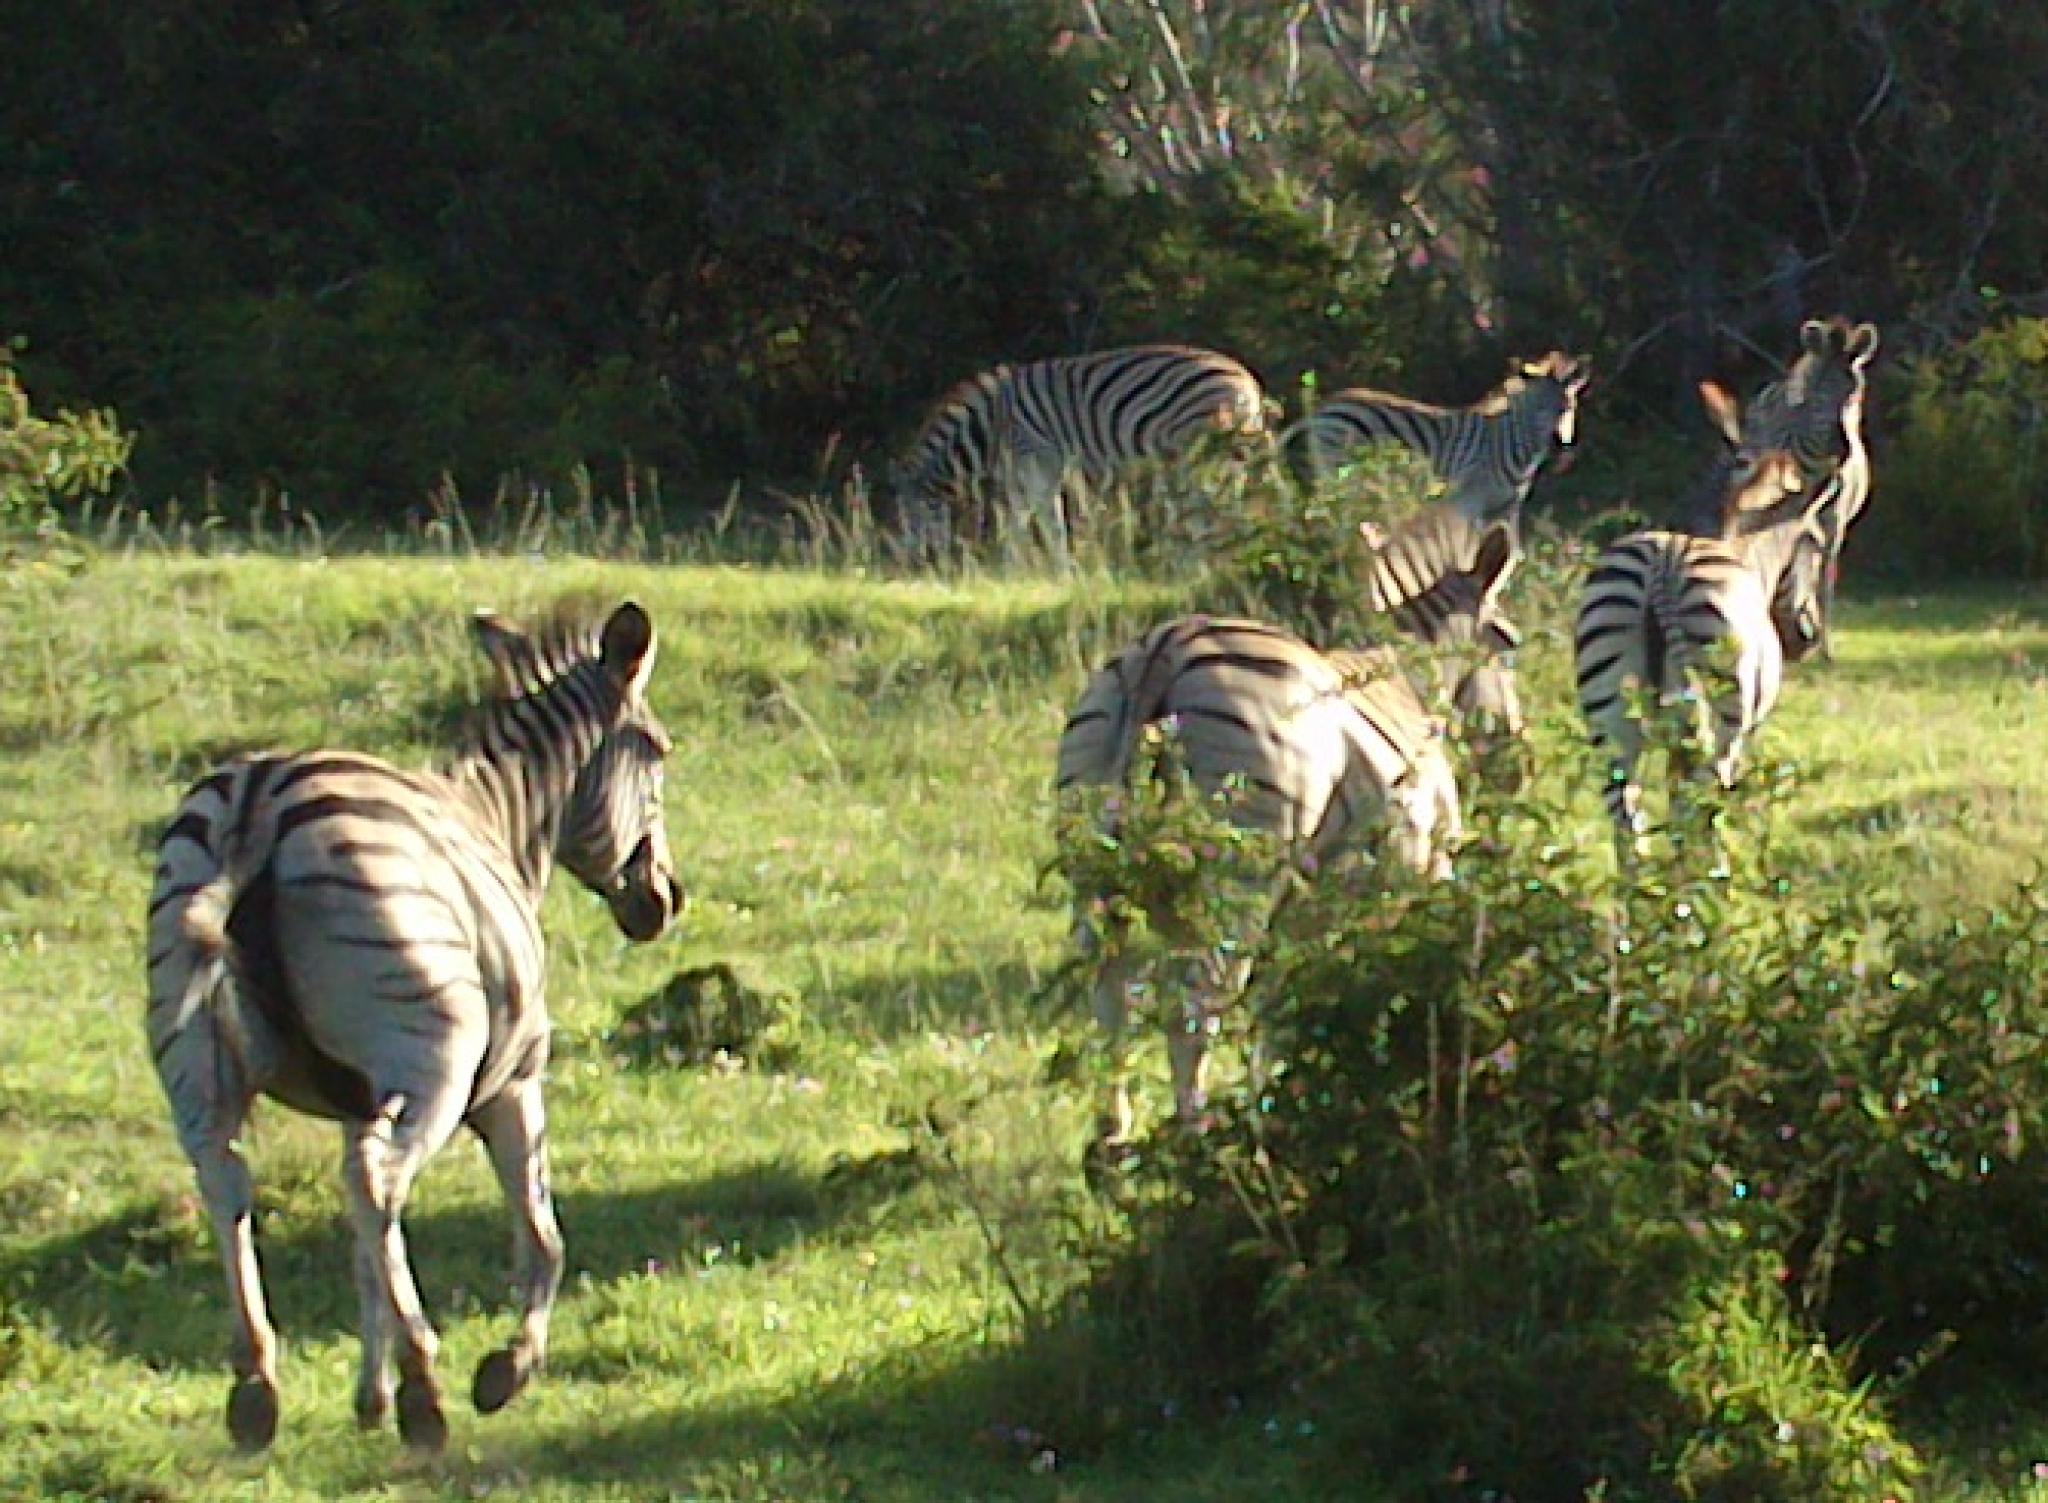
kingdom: Animalia
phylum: Chordata
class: Mammalia
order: Perissodactyla
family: Equidae
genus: Equus
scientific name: Equus quagga
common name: Plains zebra
